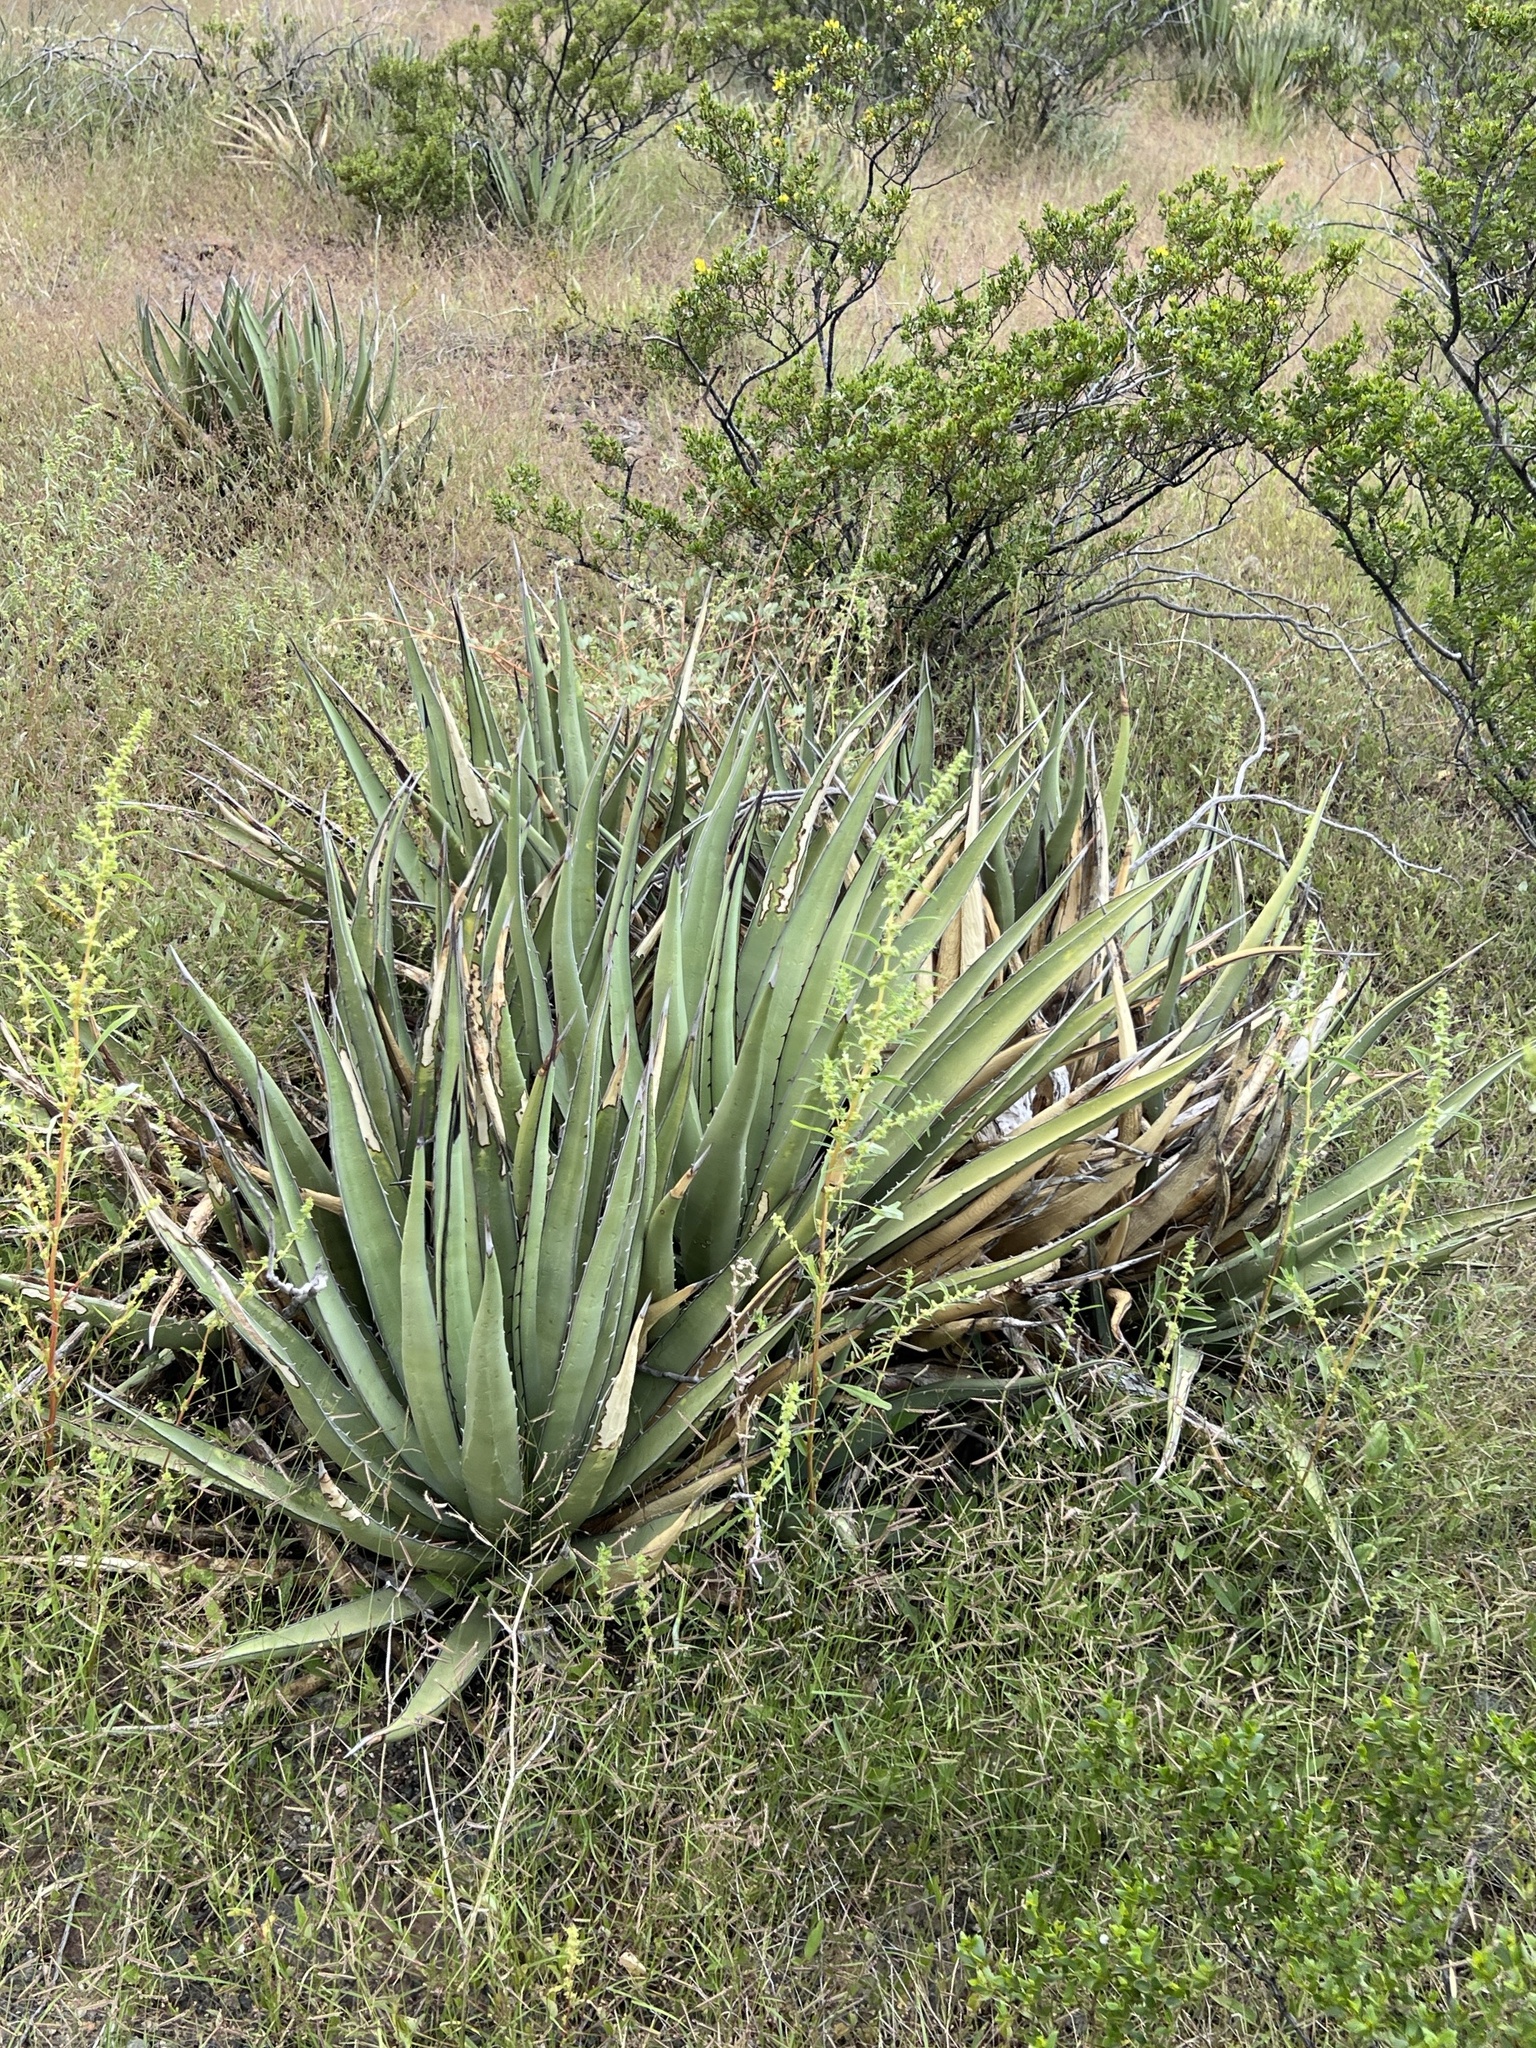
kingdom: Plantae
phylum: Tracheophyta
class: Liliopsida
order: Asparagales
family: Asparagaceae
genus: Agave
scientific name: Agave lechuguilla
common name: Lecheguilla agave
